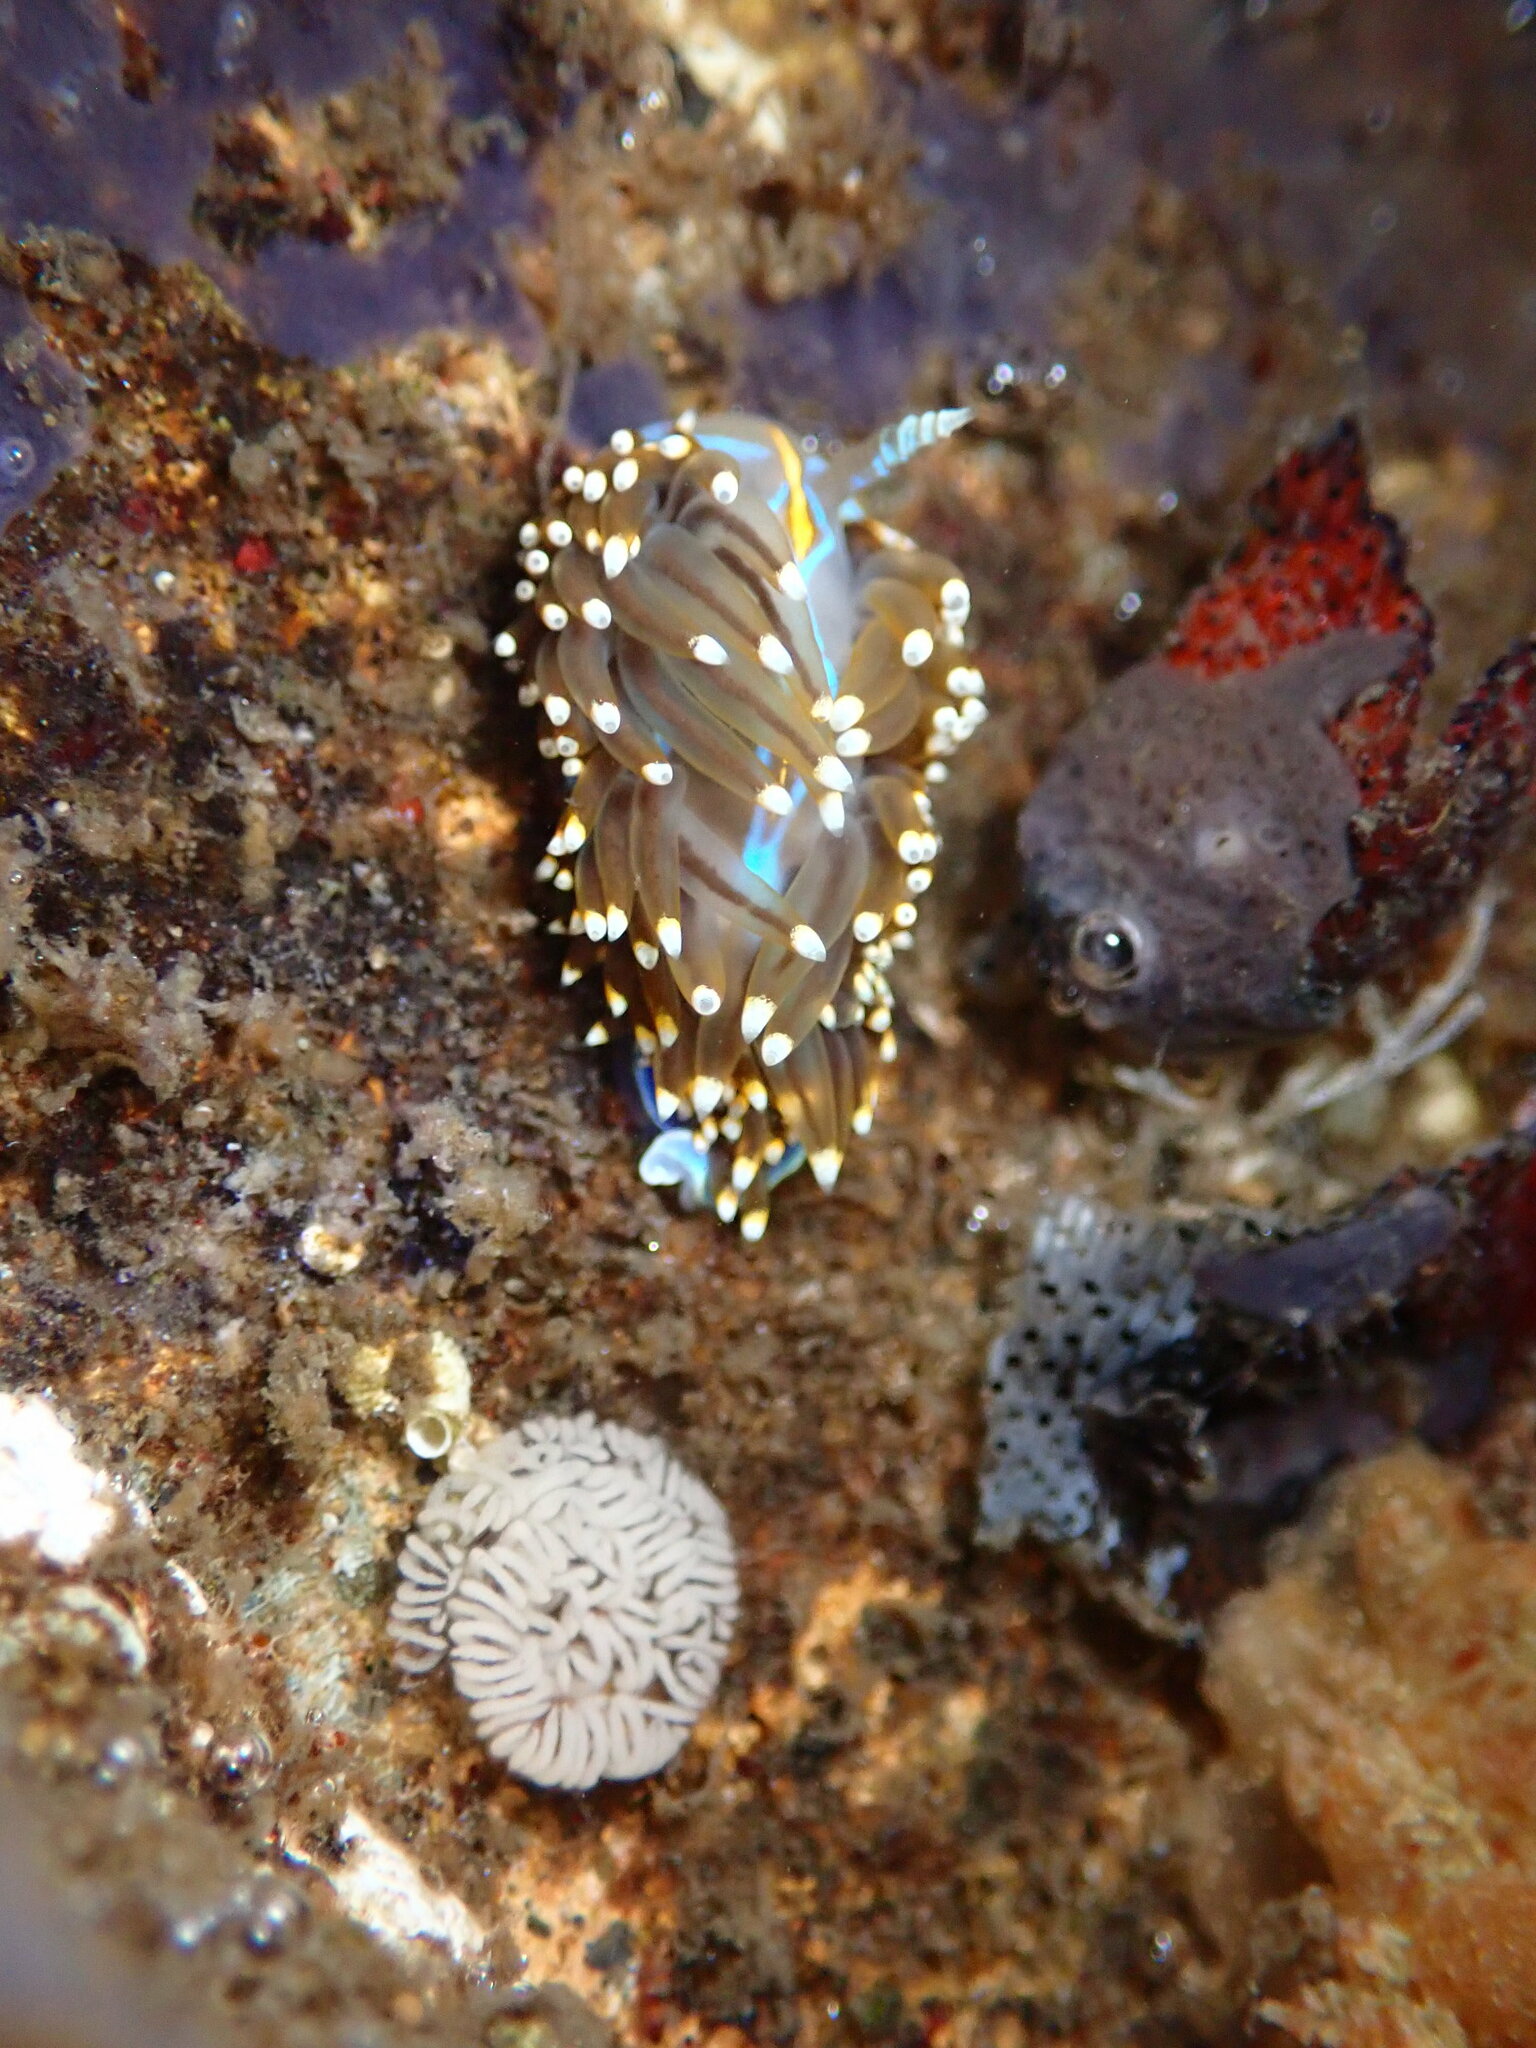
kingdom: Animalia
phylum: Mollusca
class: Gastropoda
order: Nudibranchia
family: Myrrhinidae
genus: Hermissenda
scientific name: Hermissenda opalescens
